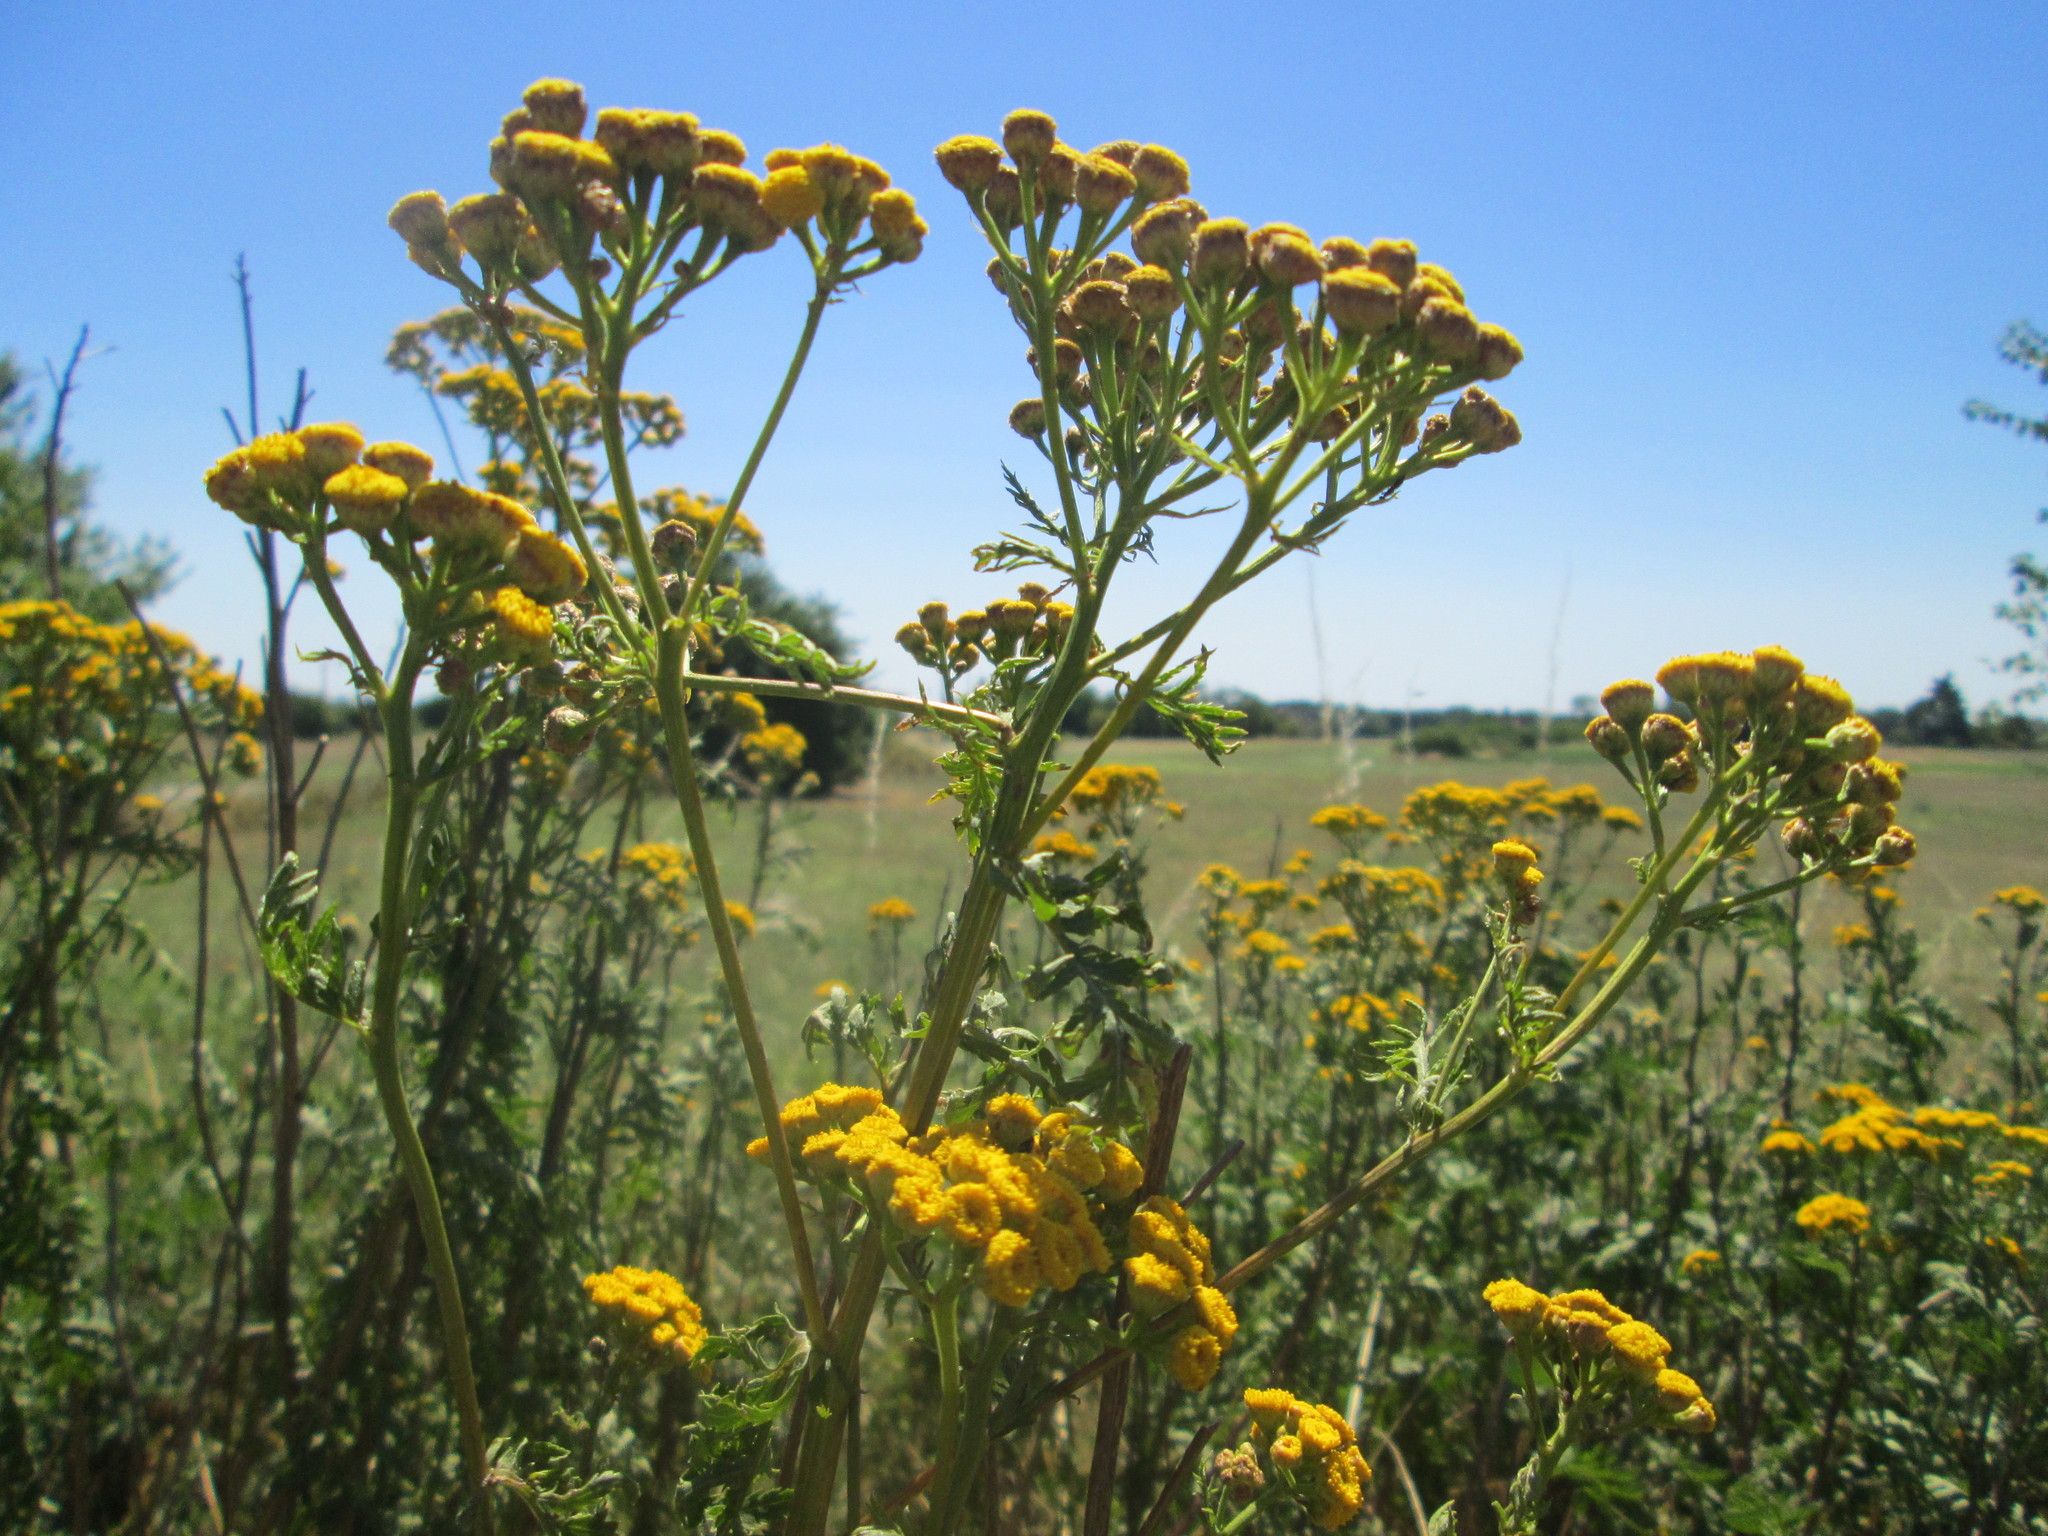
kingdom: Plantae
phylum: Tracheophyta
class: Magnoliopsida
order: Asterales
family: Asteraceae
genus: Tanacetum
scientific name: Tanacetum vulgare
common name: Common tansy
